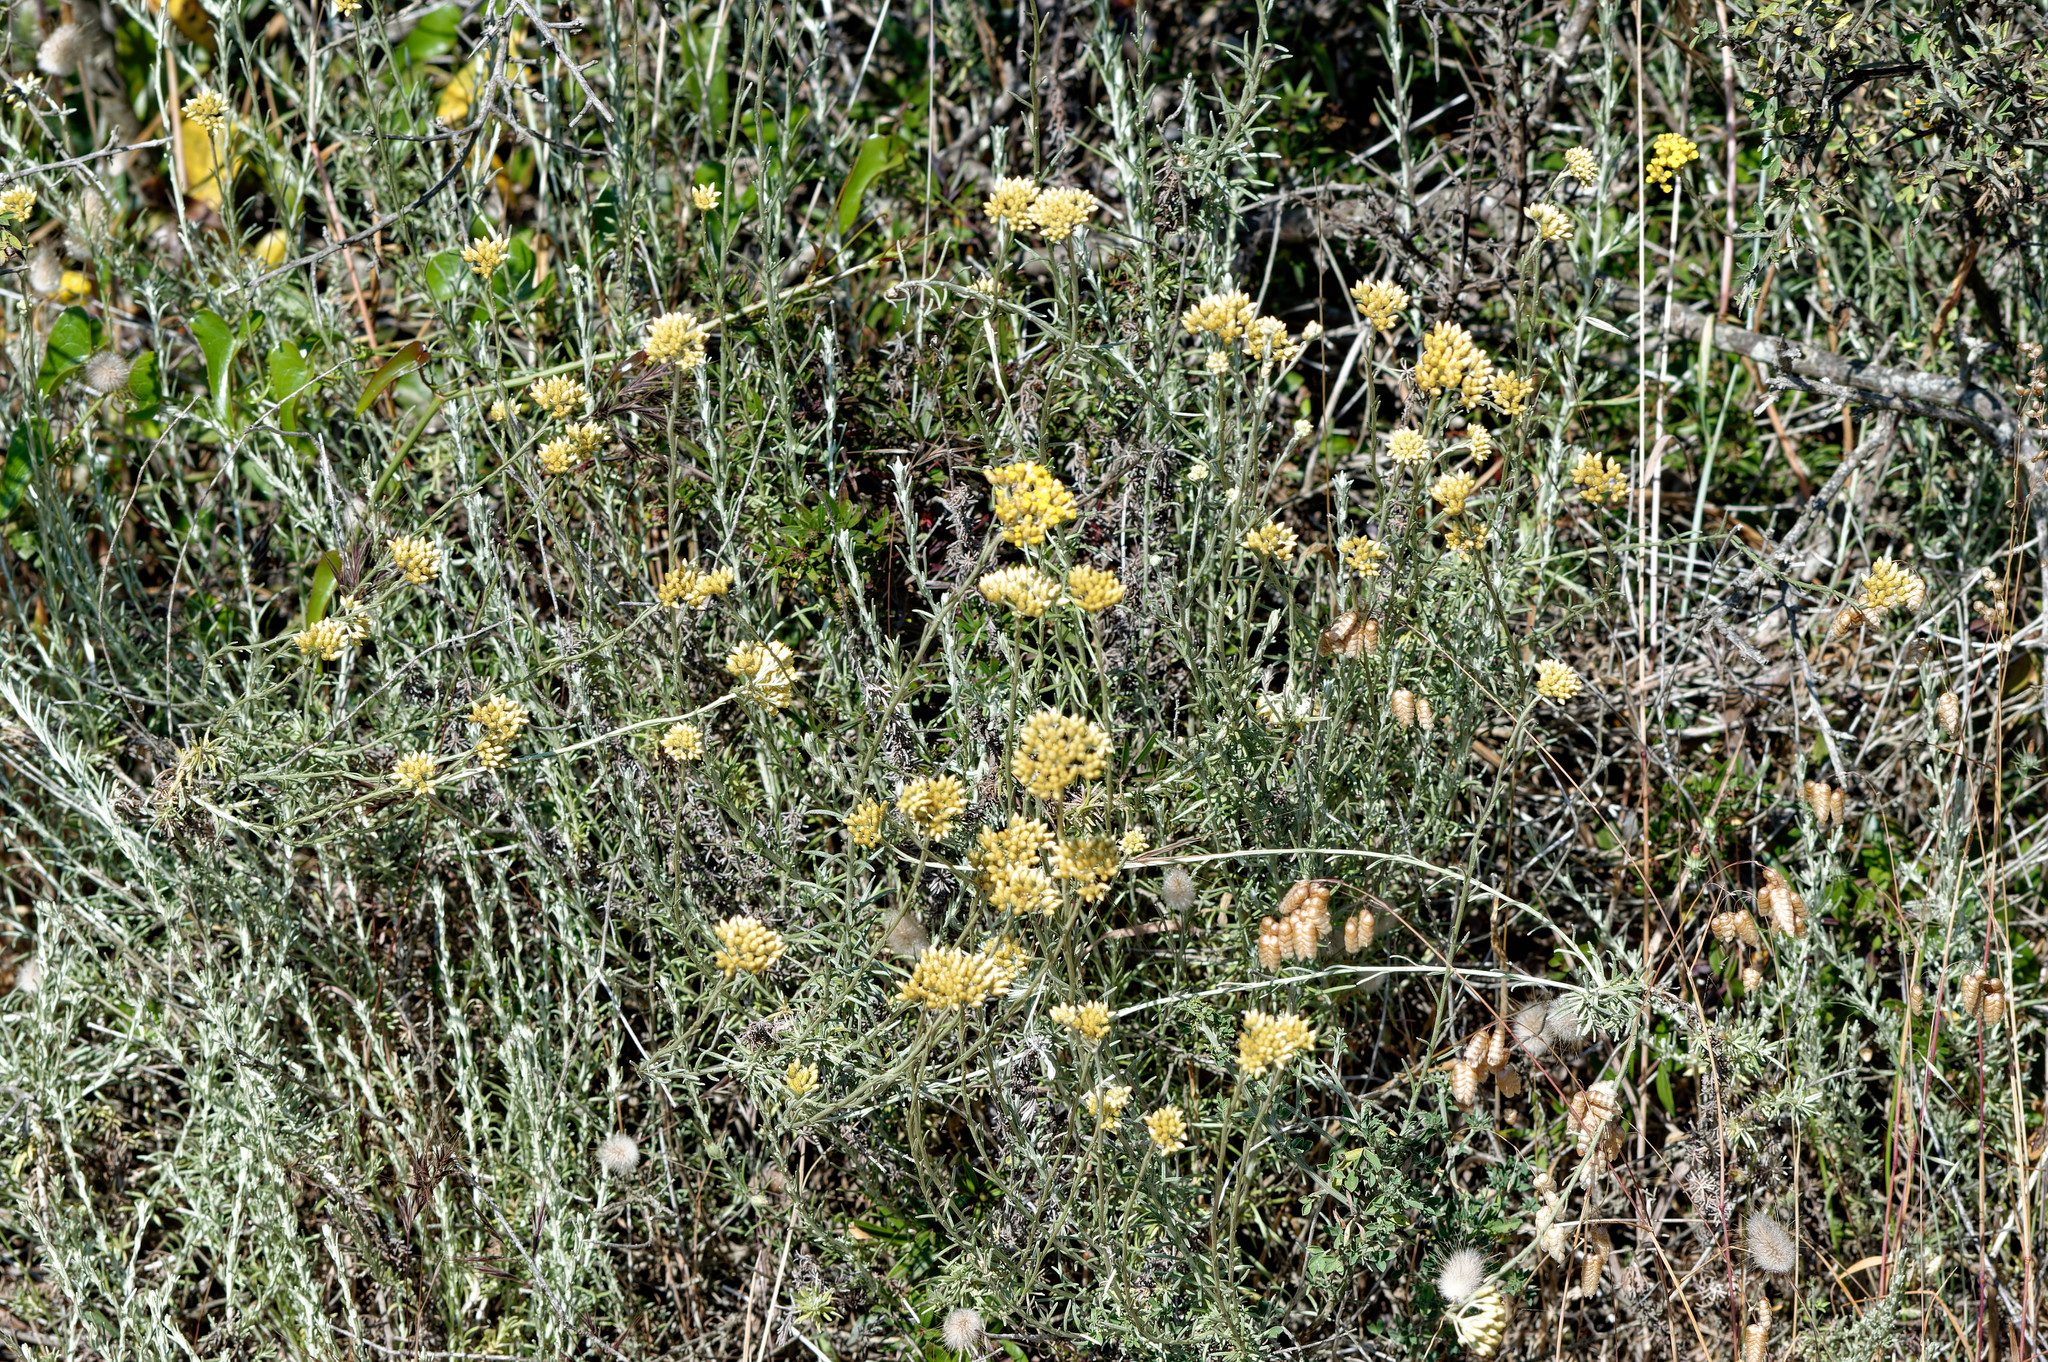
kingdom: Plantae
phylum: Tracheophyta
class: Magnoliopsida
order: Asterales
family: Asteraceae
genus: Helichrysum
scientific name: Helichrysum italicum
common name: Curryplant
